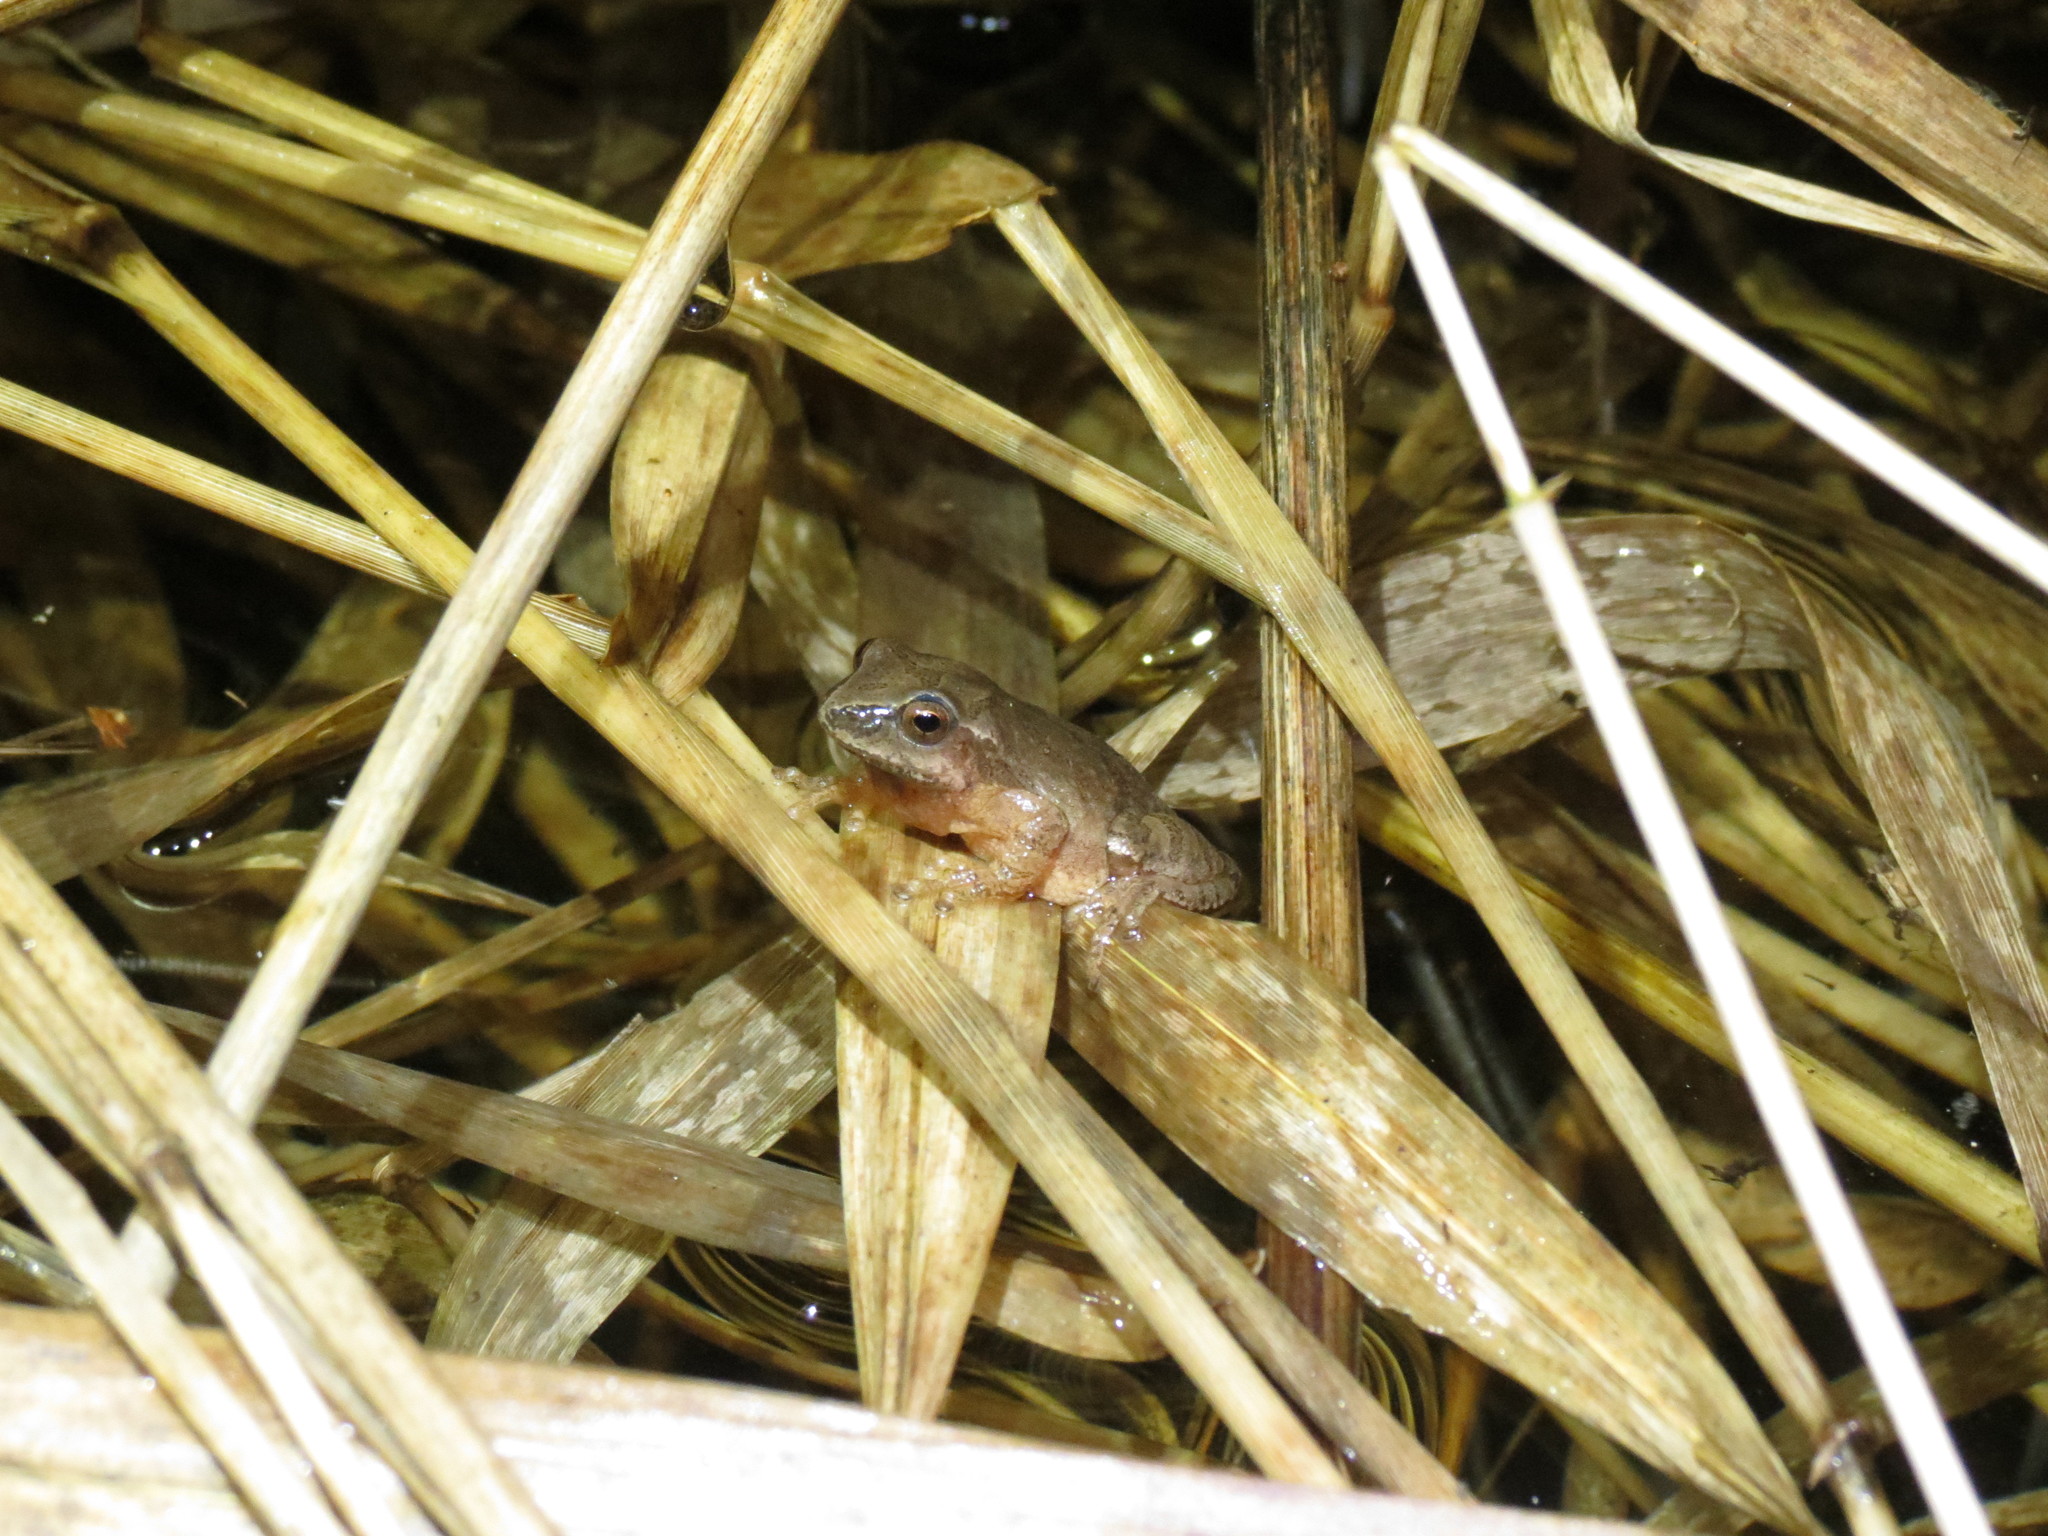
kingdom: Animalia
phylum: Chordata
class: Amphibia
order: Anura
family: Hylidae
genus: Pseudacris
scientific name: Pseudacris crucifer
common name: Spring peeper
